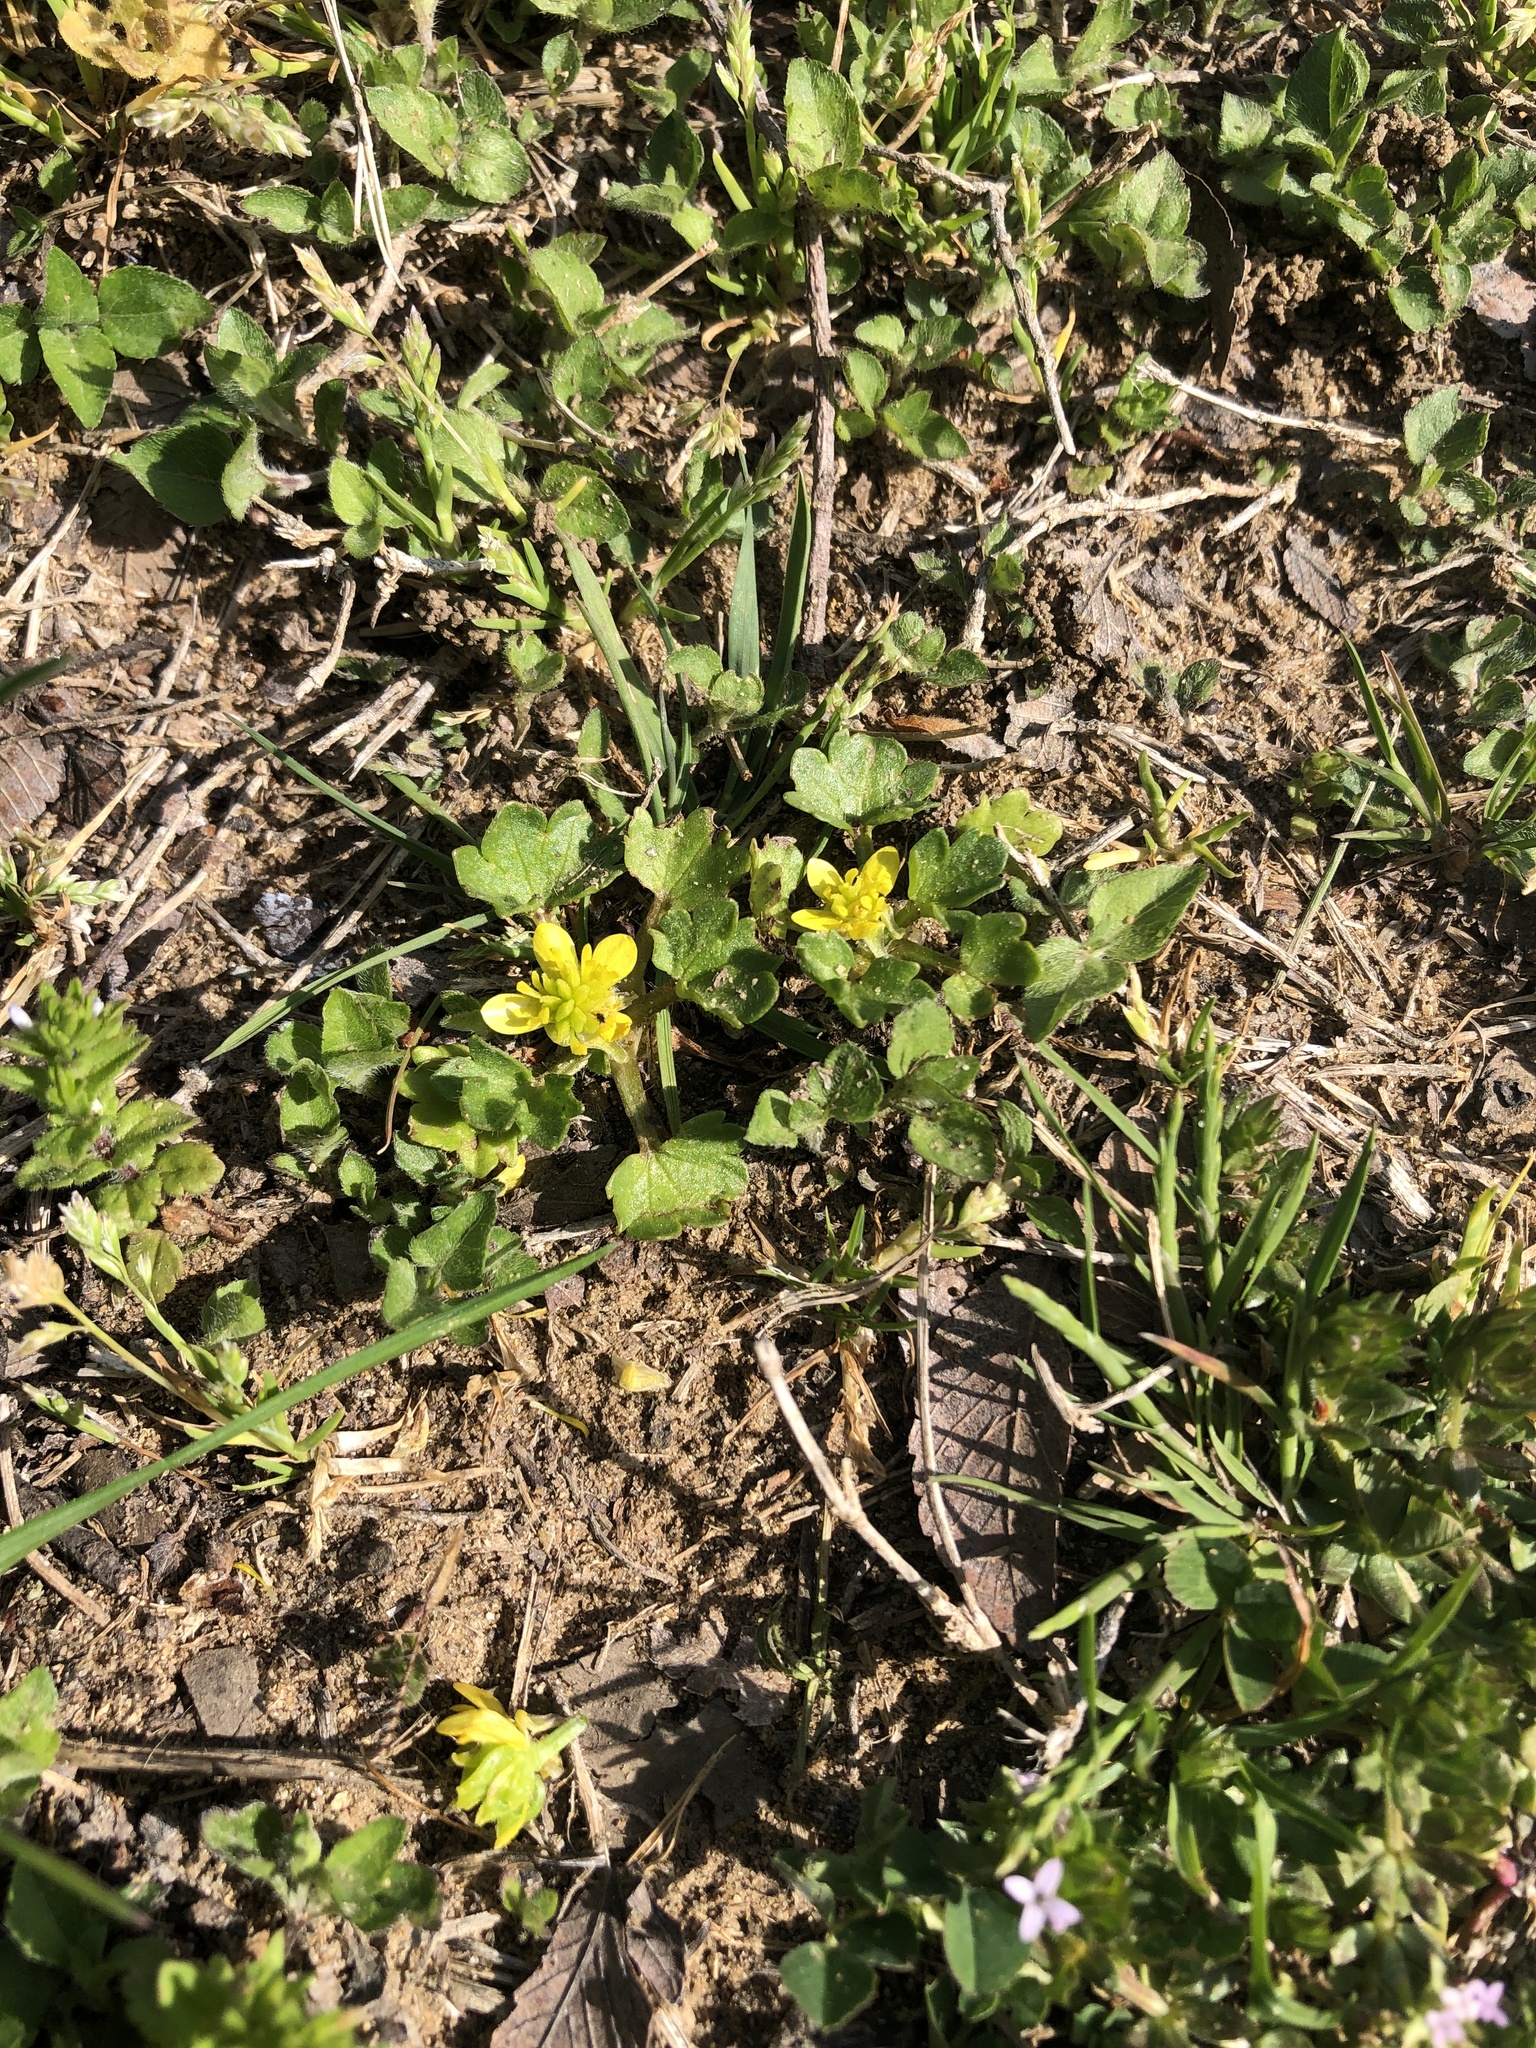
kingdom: Plantae
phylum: Tracheophyta
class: Magnoliopsida
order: Ranunculales
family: Ranunculaceae
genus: Ranunculus
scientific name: Ranunculus muricatus
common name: Rough-fruited buttercup
